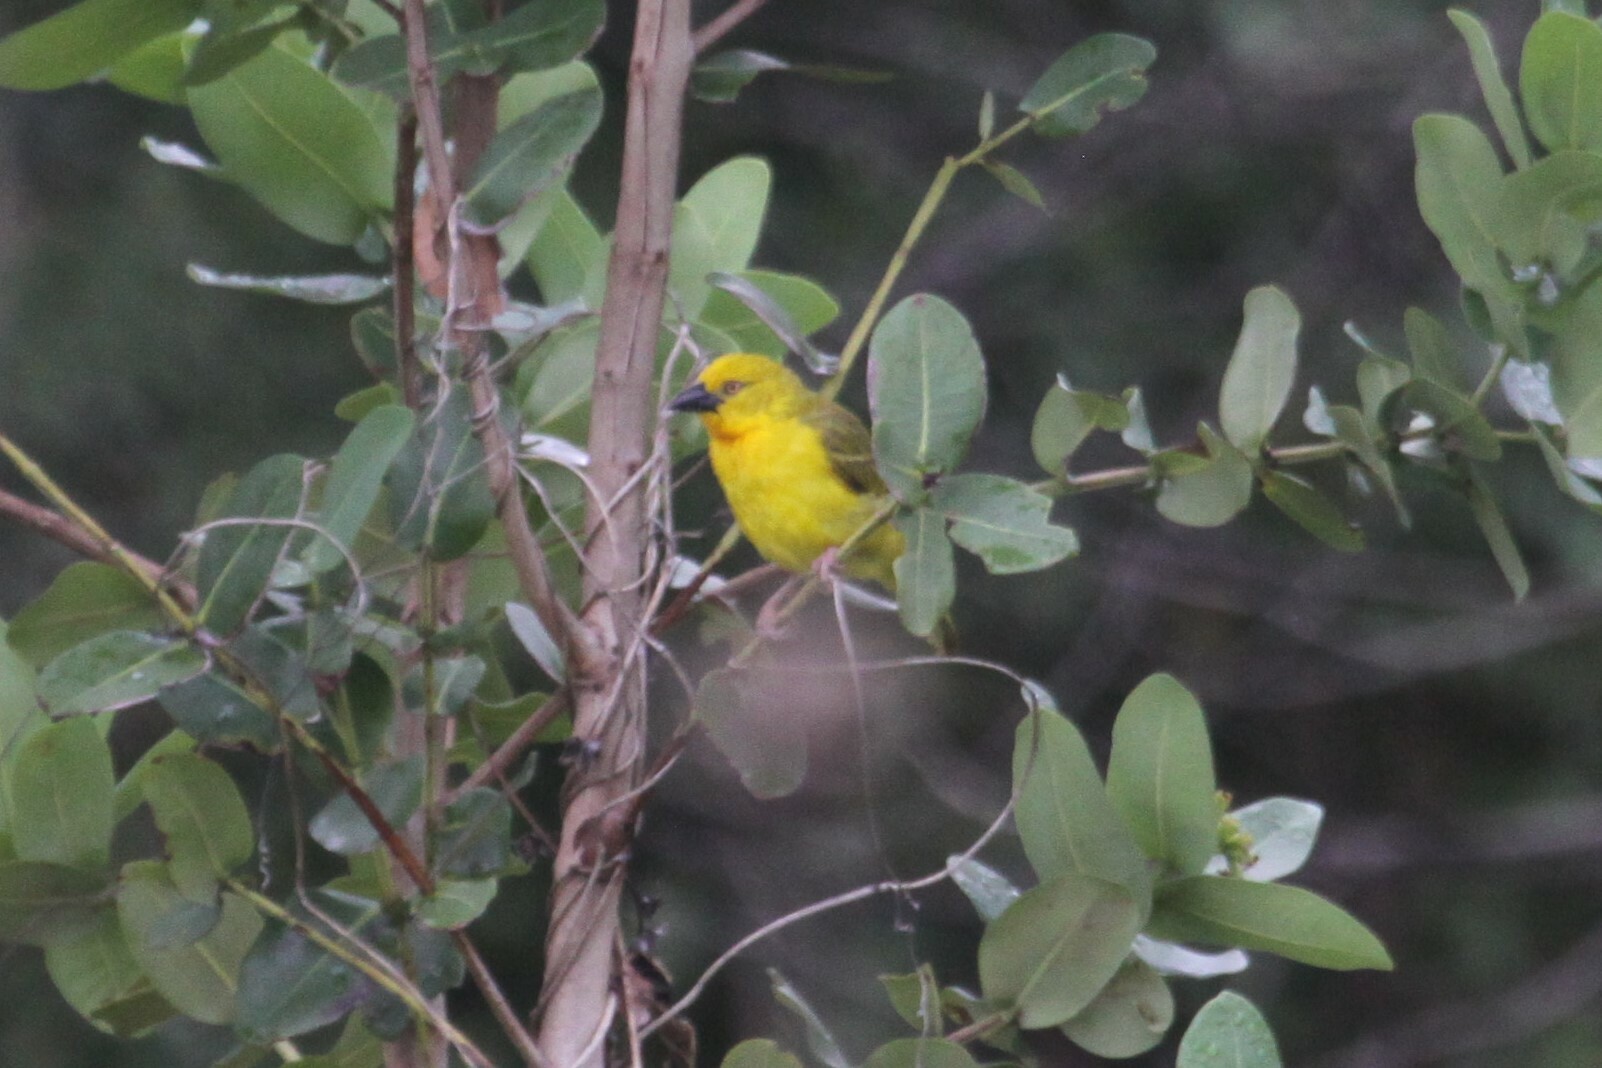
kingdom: Animalia
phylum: Chordata
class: Aves
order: Passeriformes
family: Ploceidae
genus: Ploceus
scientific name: Ploceus xanthops
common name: Holub's golden weaver
